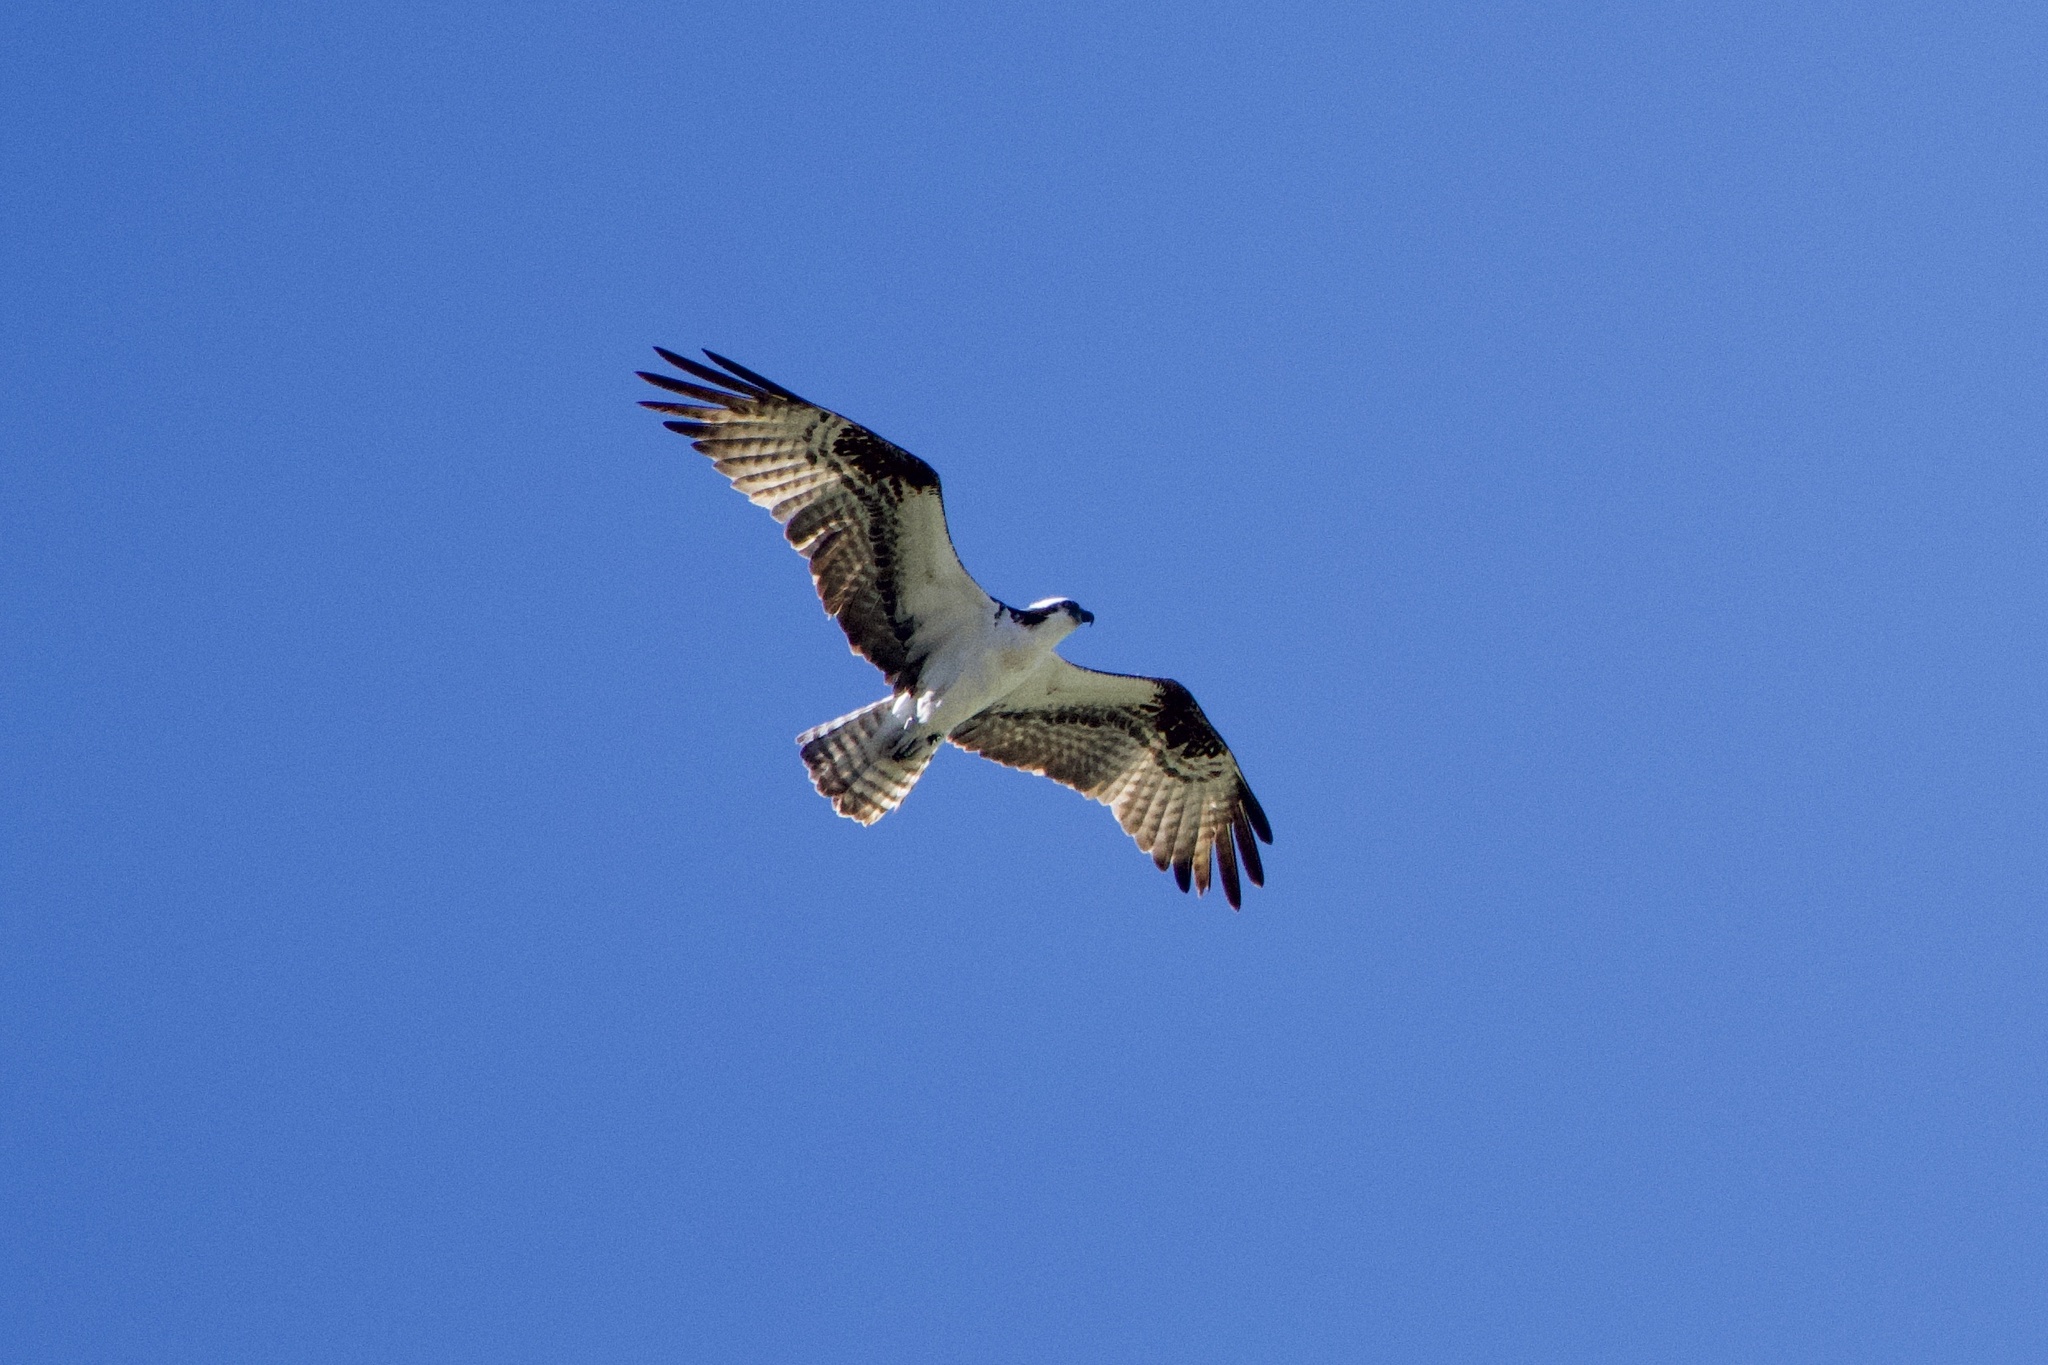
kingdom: Animalia
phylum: Chordata
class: Aves
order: Accipitriformes
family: Pandionidae
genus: Pandion
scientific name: Pandion haliaetus
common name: Osprey
